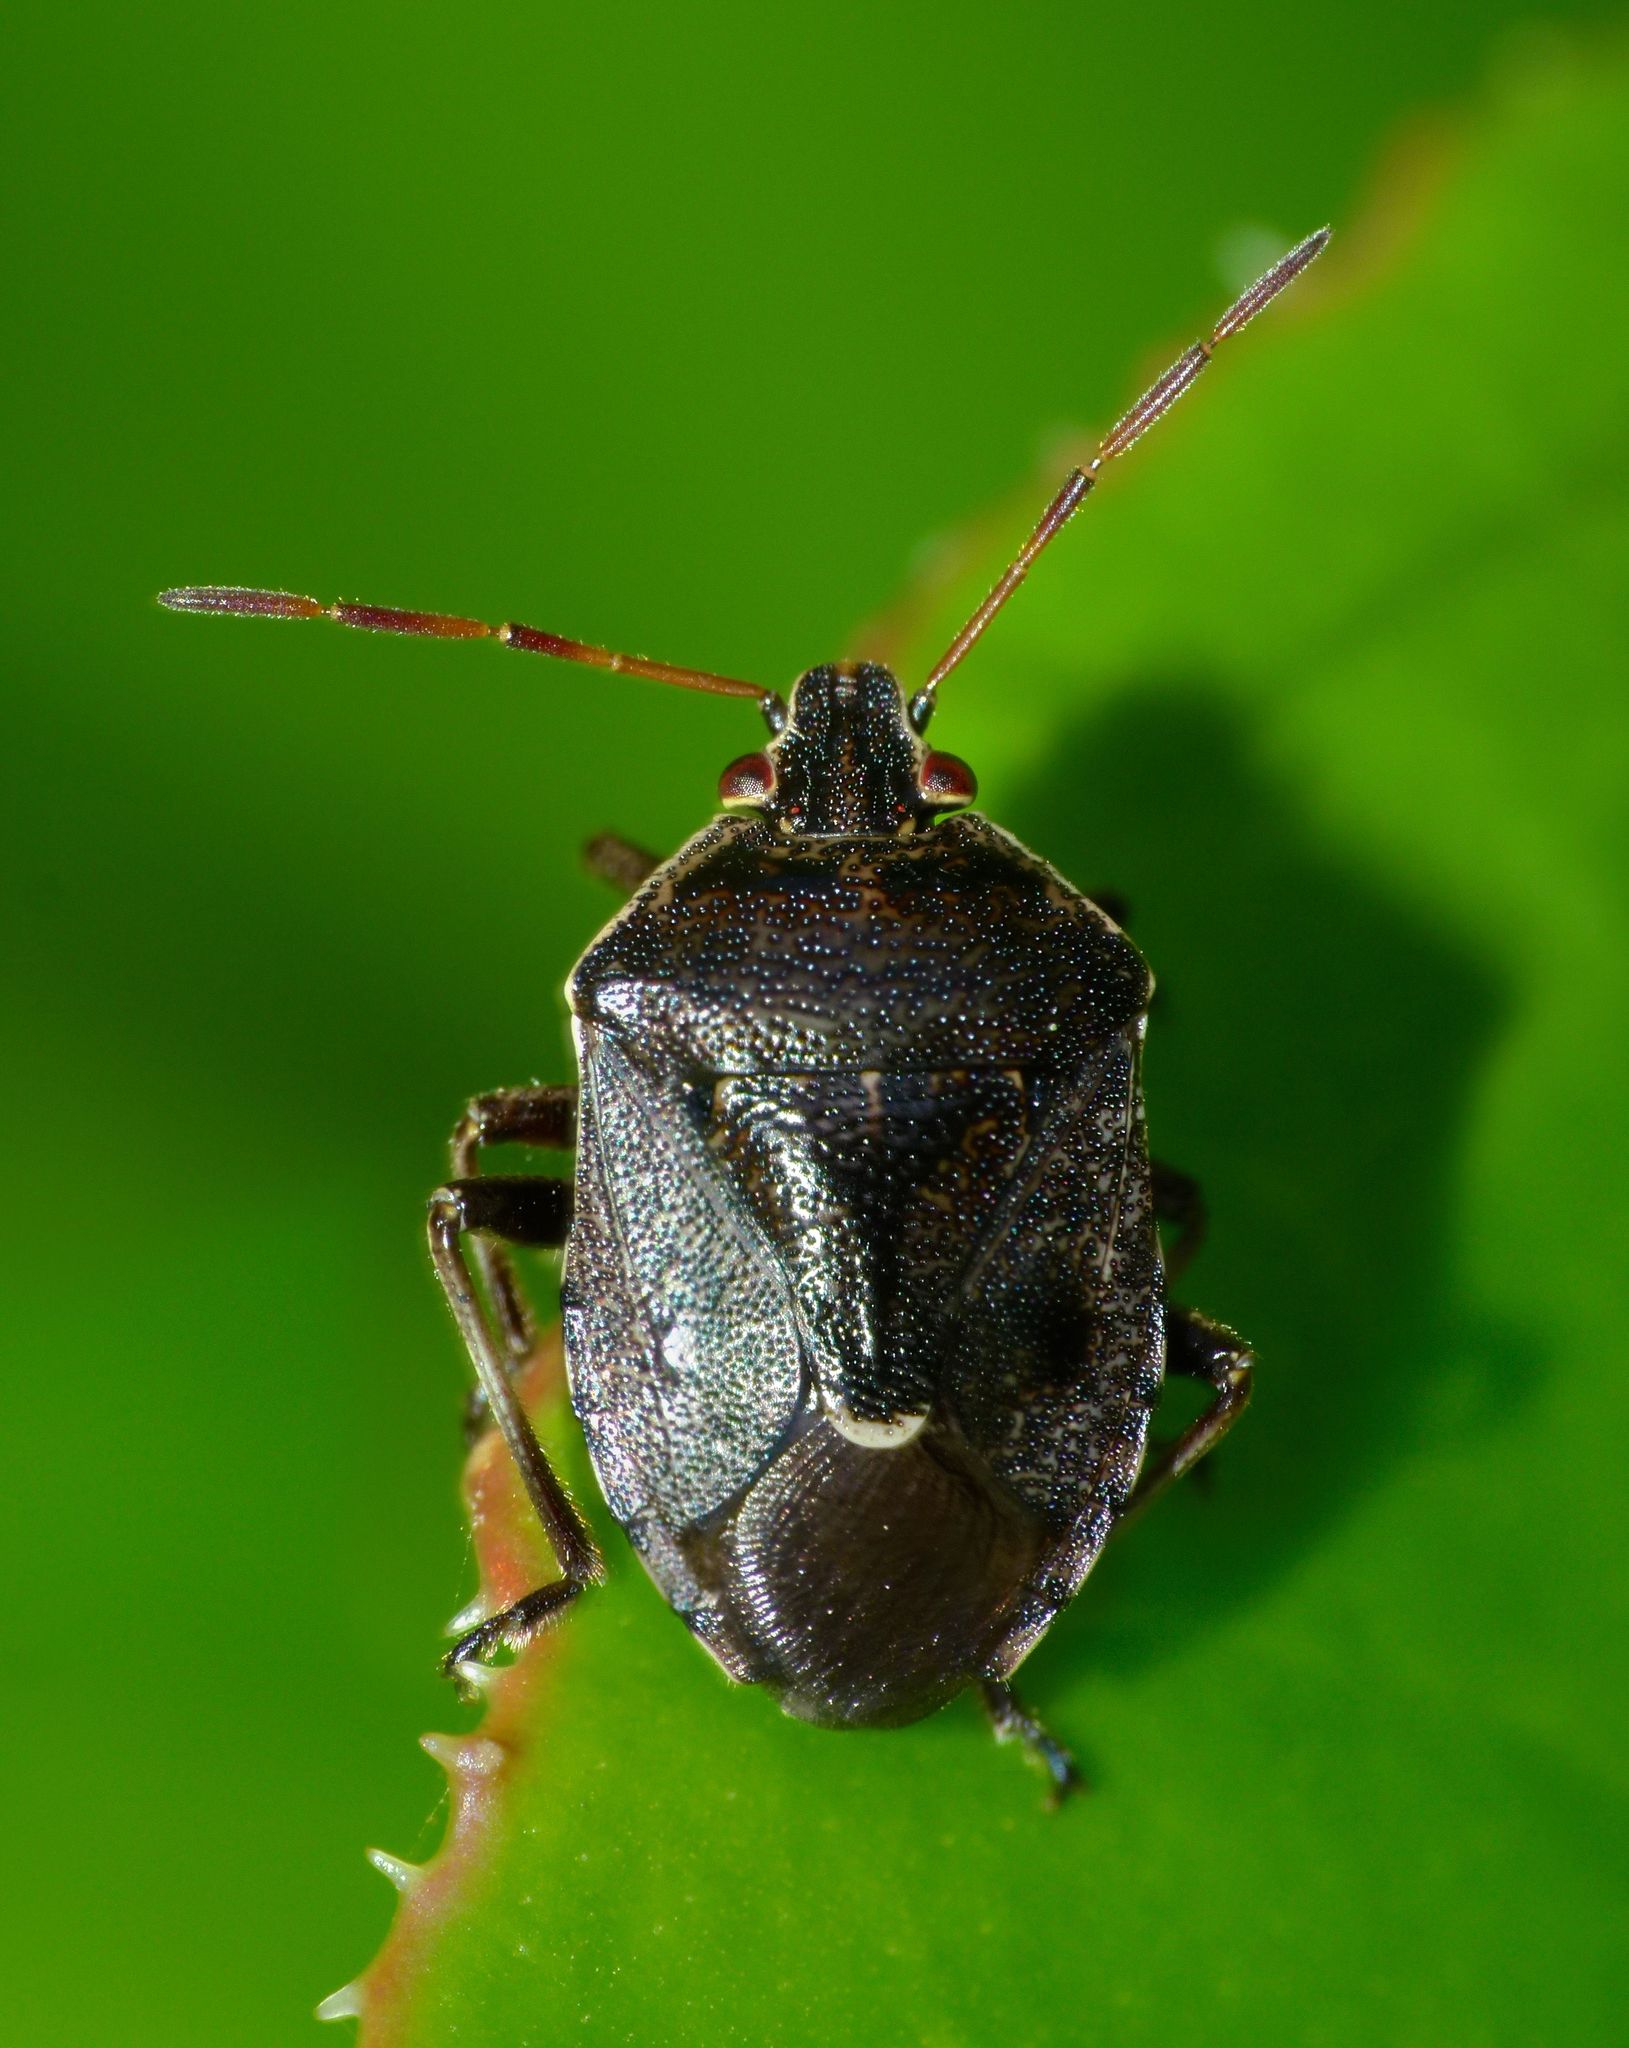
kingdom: Animalia
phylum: Arthropoda
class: Insecta
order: Hemiptera
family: Pentatomidae
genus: Cermatulus
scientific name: Cermatulus nasalis
